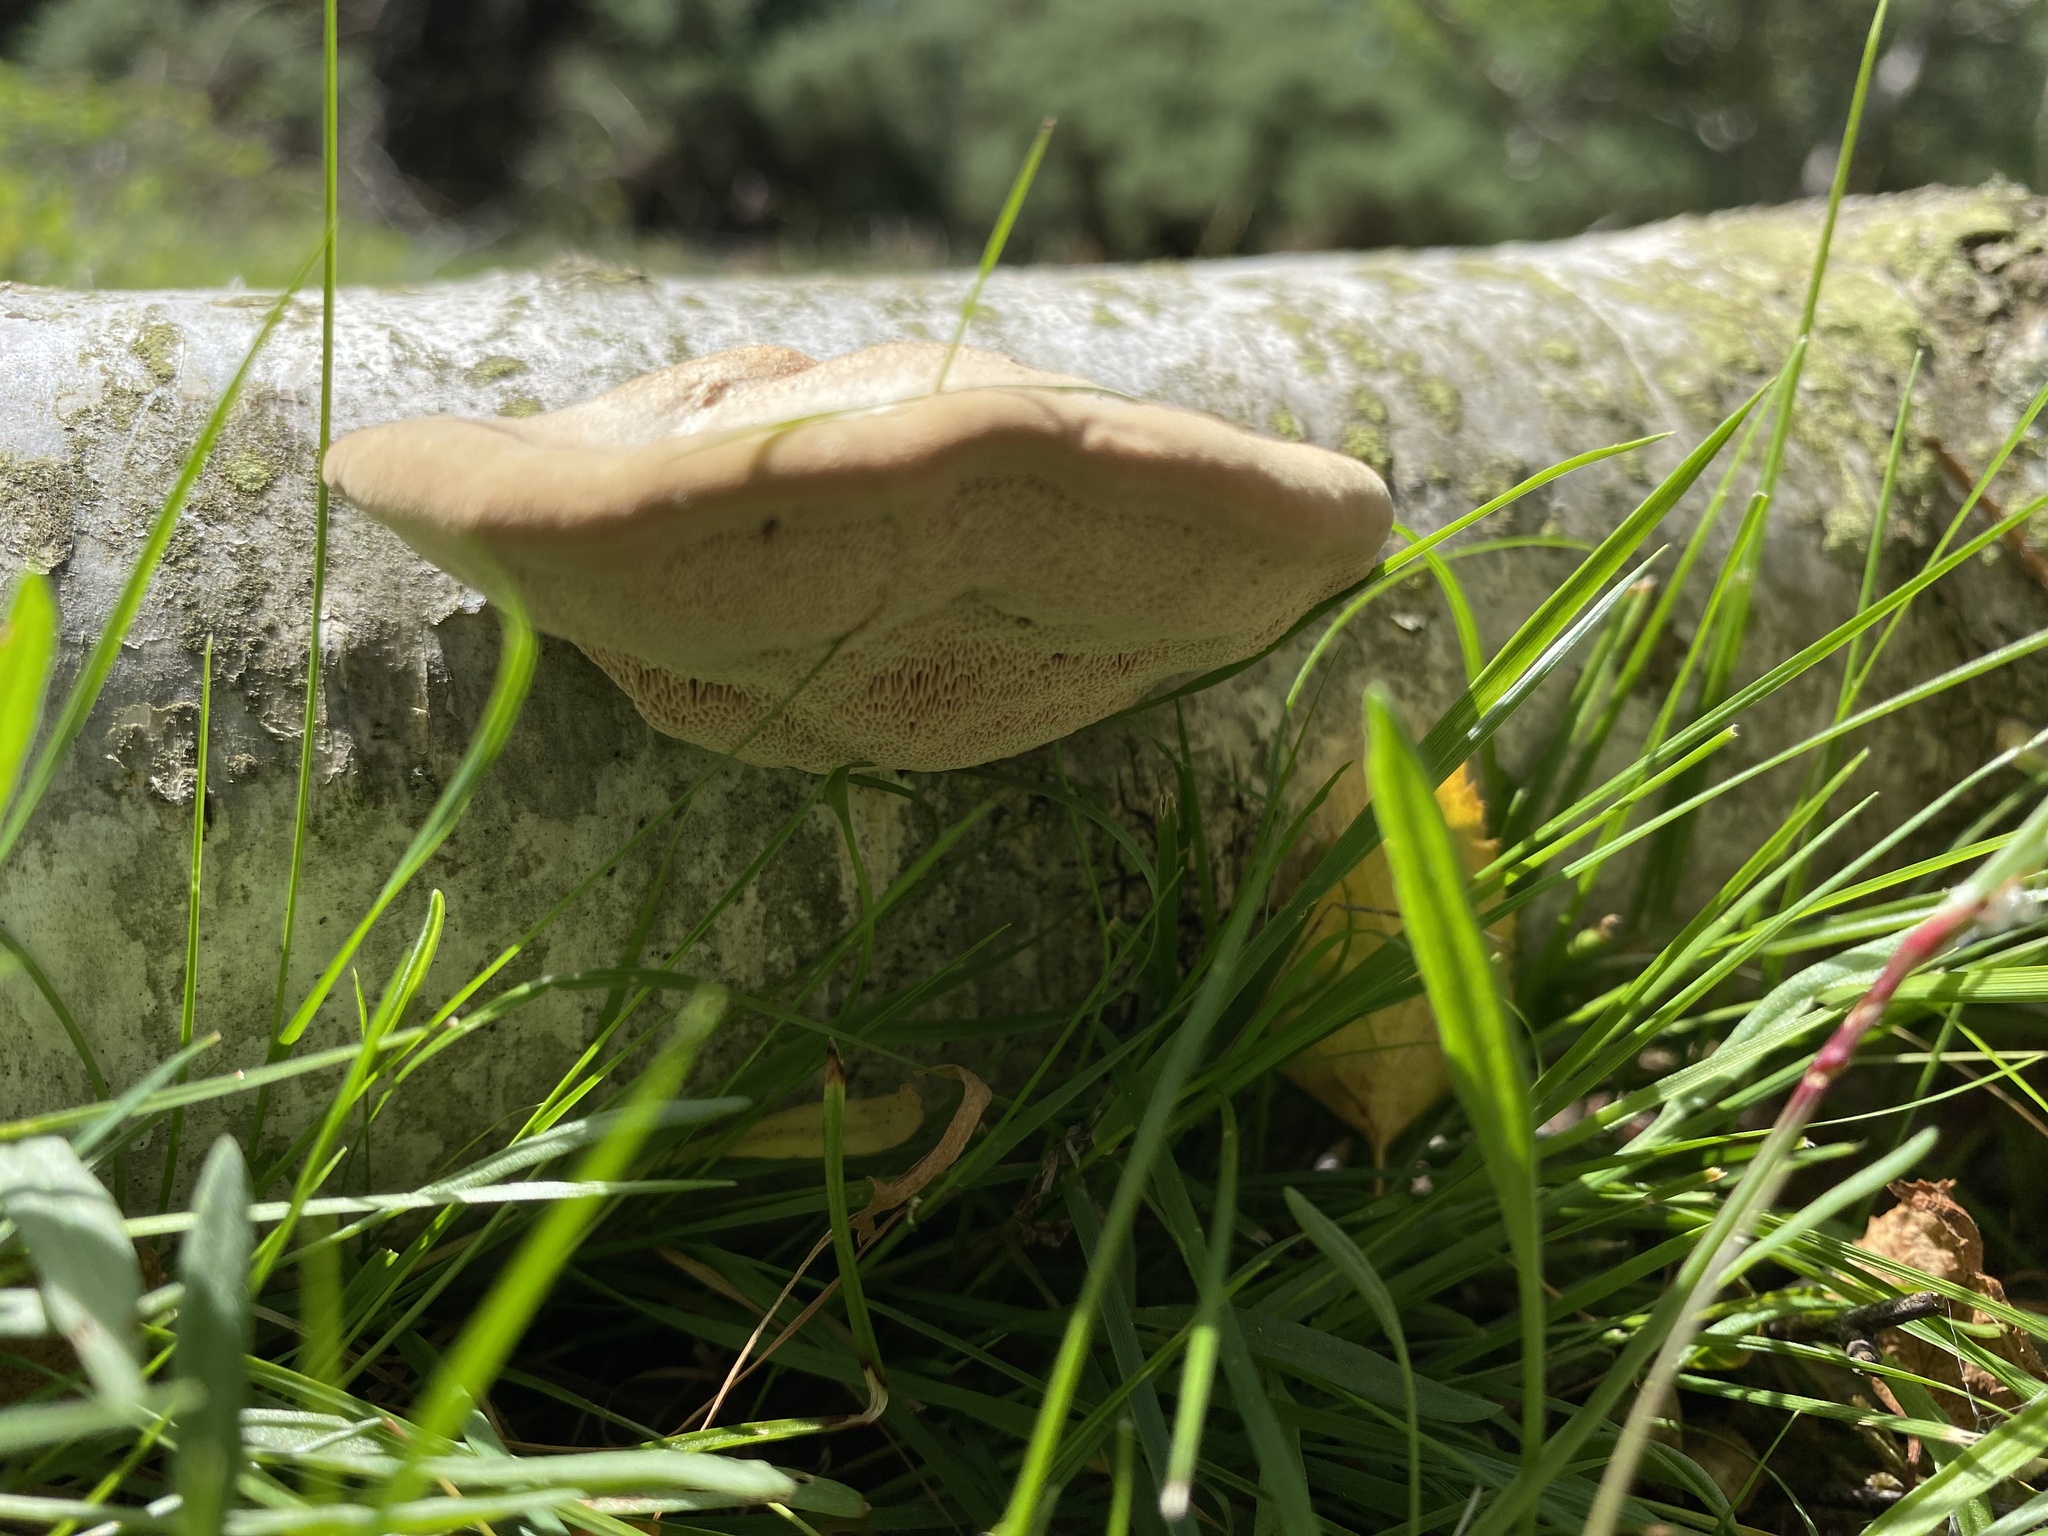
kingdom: Fungi
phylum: Basidiomycota
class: Agaricomycetes
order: Polyporales
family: Fomitopsidaceae
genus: Fomitopsis
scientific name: Fomitopsis betulina
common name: Birch polypore
